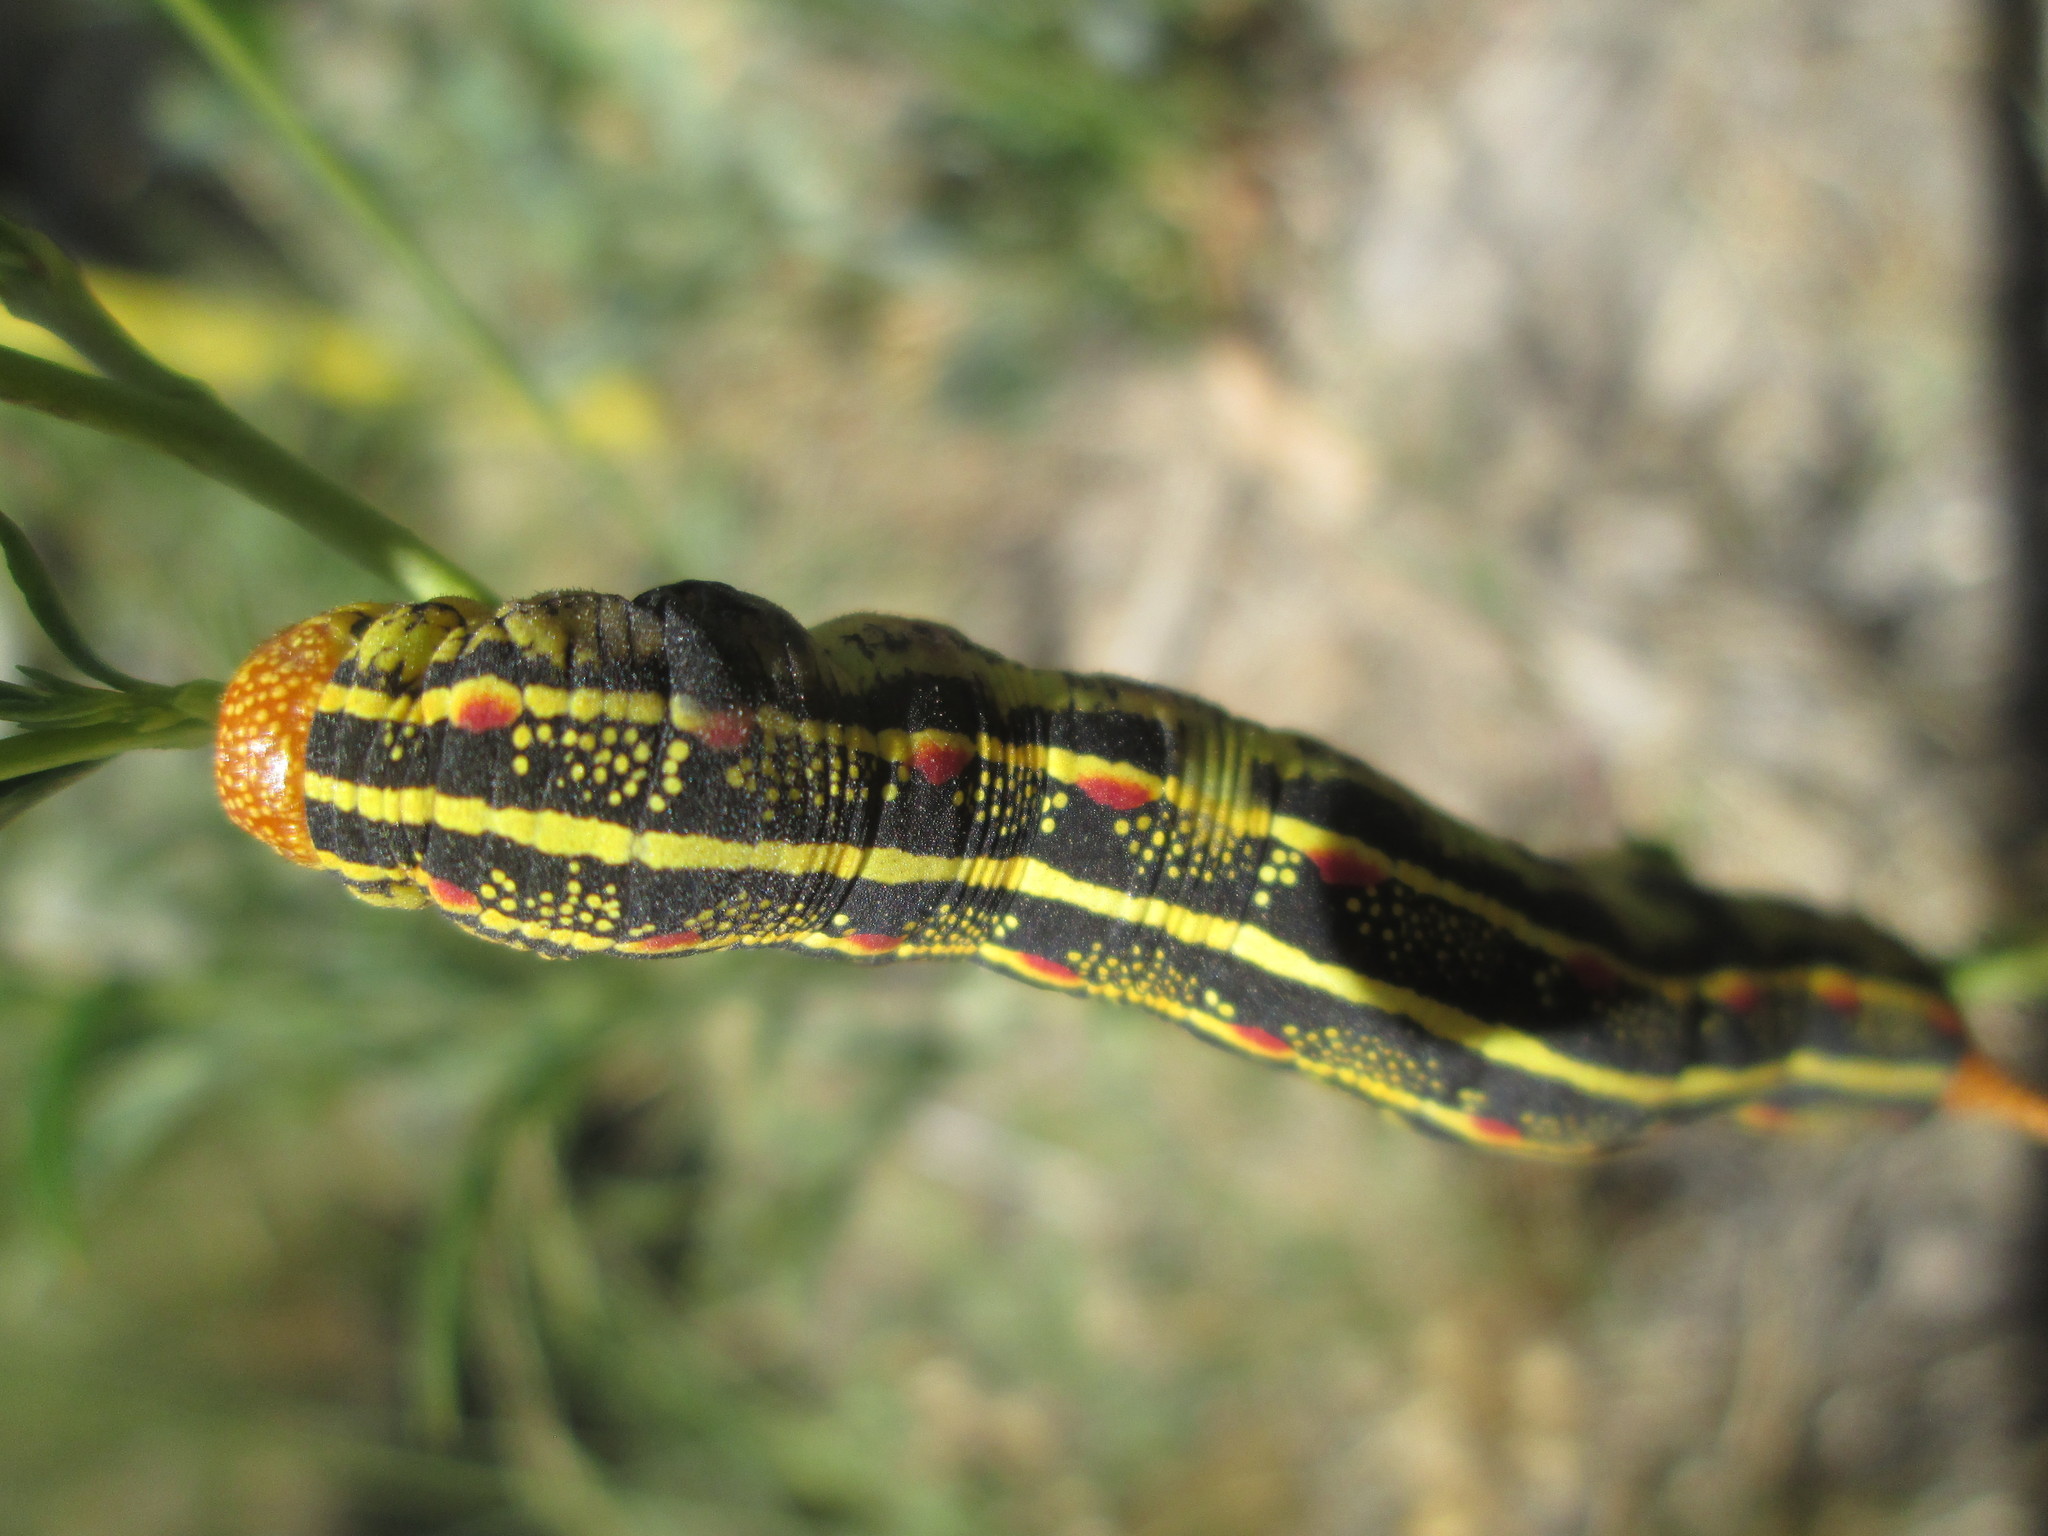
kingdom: Animalia
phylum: Arthropoda
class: Insecta
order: Lepidoptera
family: Sphingidae
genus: Hyles
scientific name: Hyles lineata
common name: White-lined sphinx
